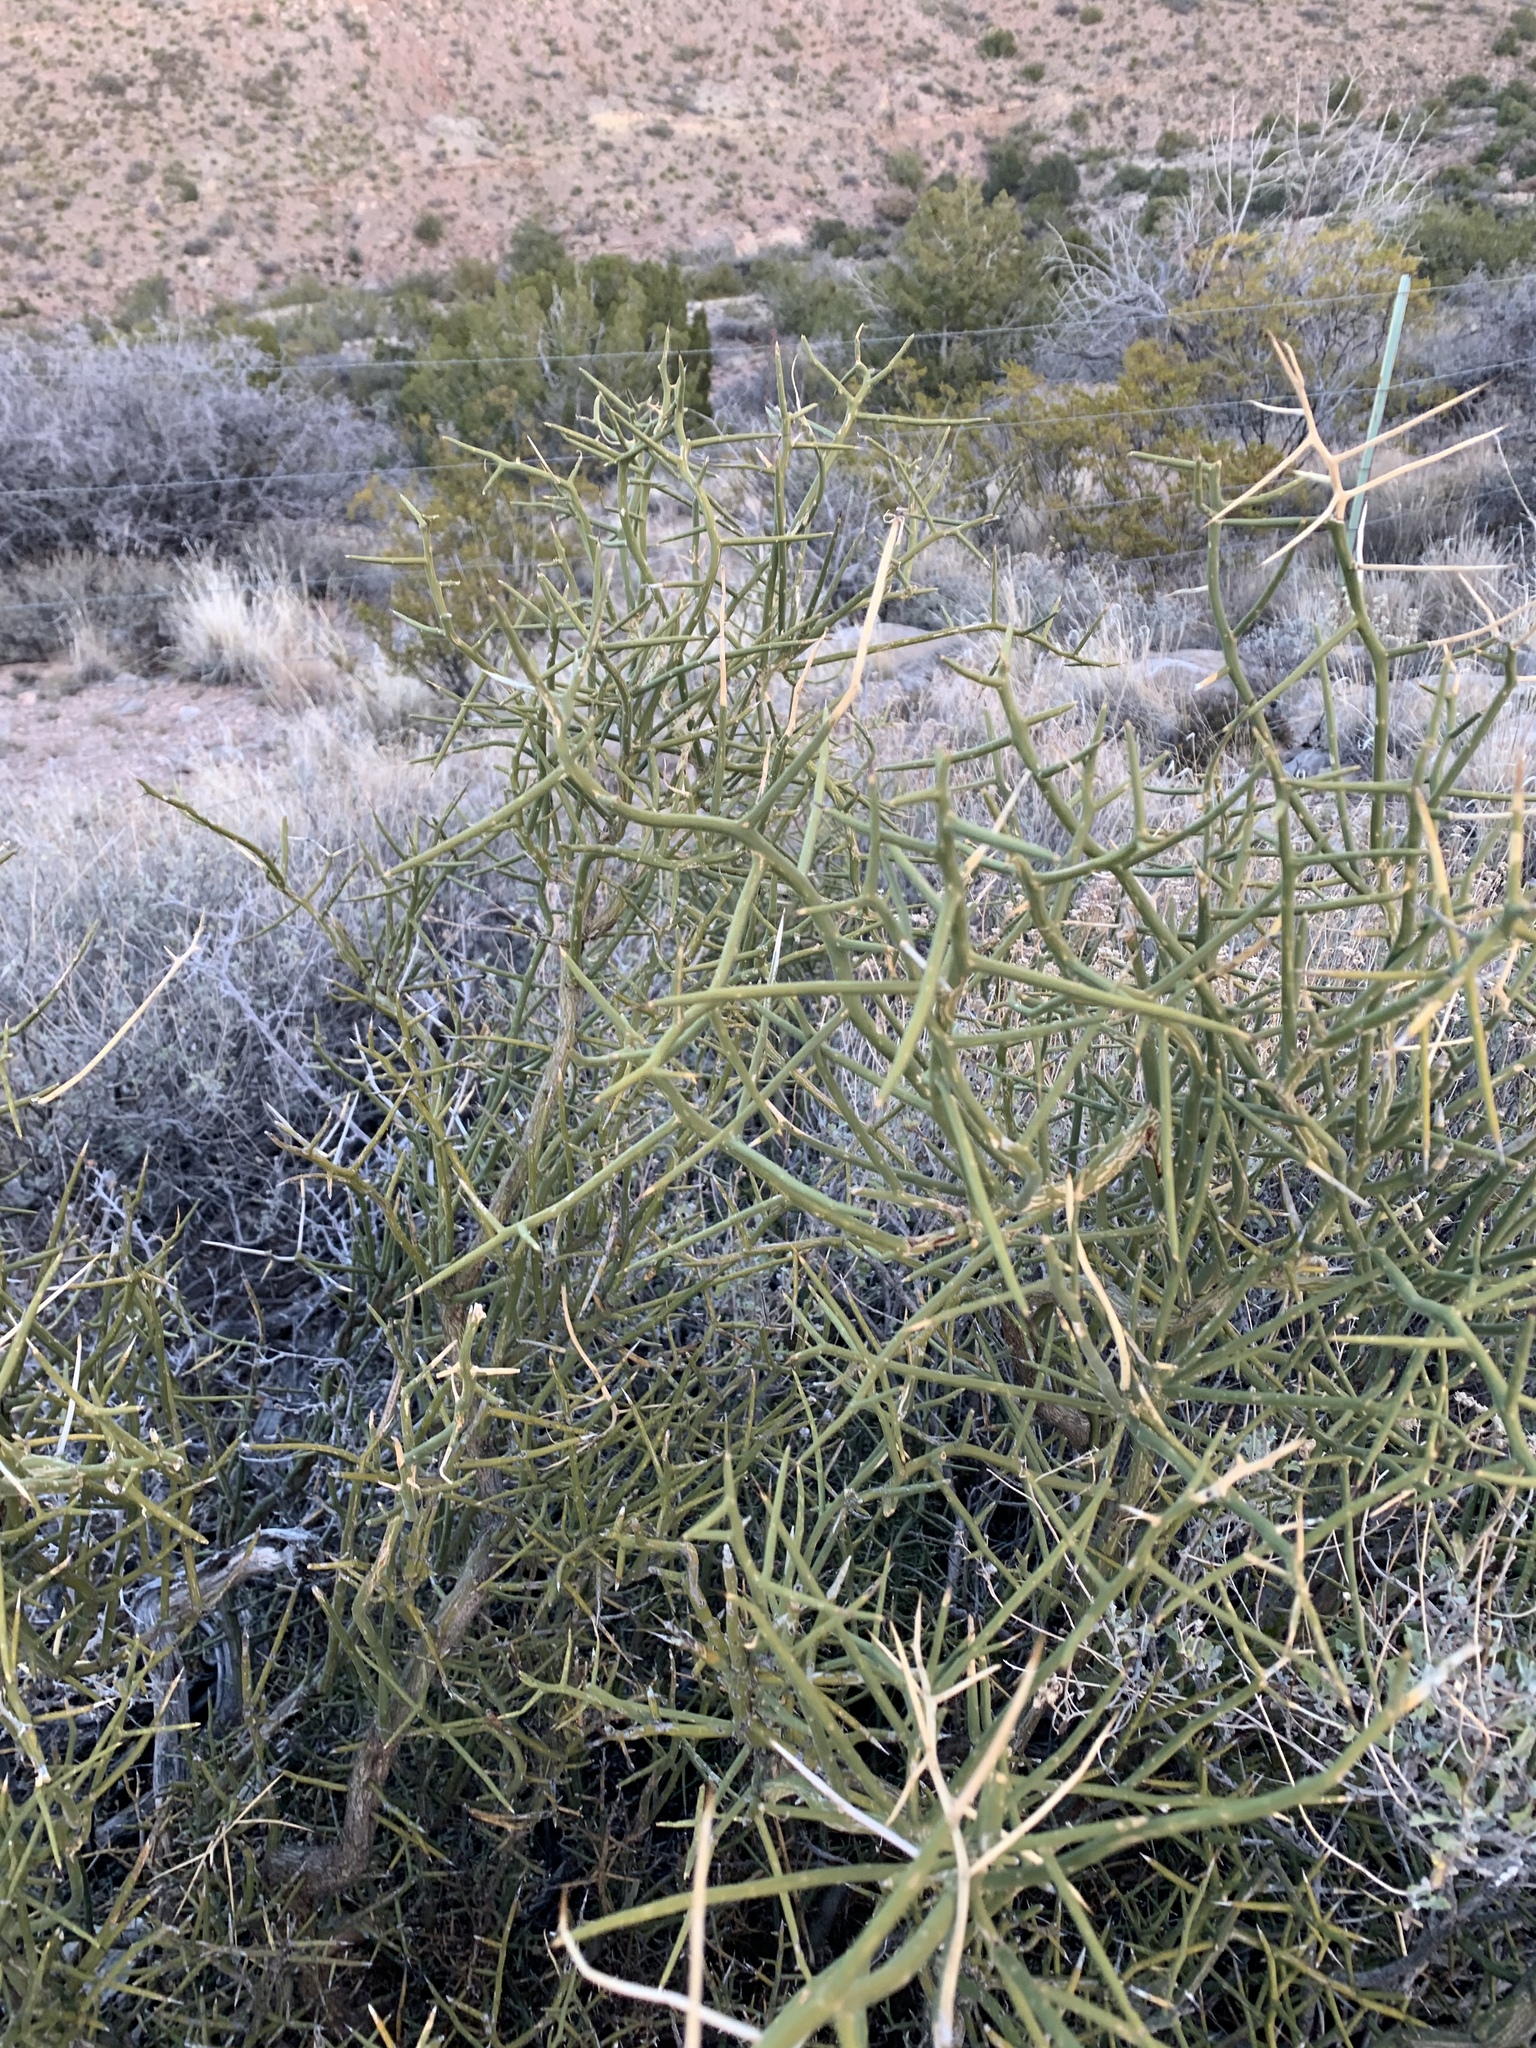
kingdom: Plantae
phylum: Tracheophyta
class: Magnoliopsida
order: Brassicales
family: Koeberliniaceae
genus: Koeberlinia
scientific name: Koeberlinia spinosa
